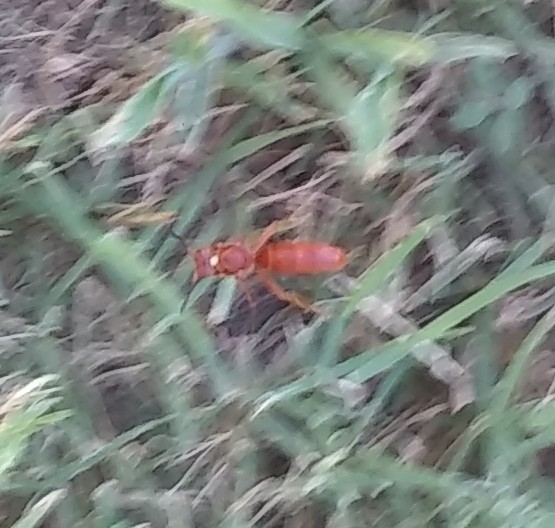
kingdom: Animalia
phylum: Arthropoda
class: Insecta
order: Hymenoptera
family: Vespidae
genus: Fuscopolistes
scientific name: Fuscopolistes
